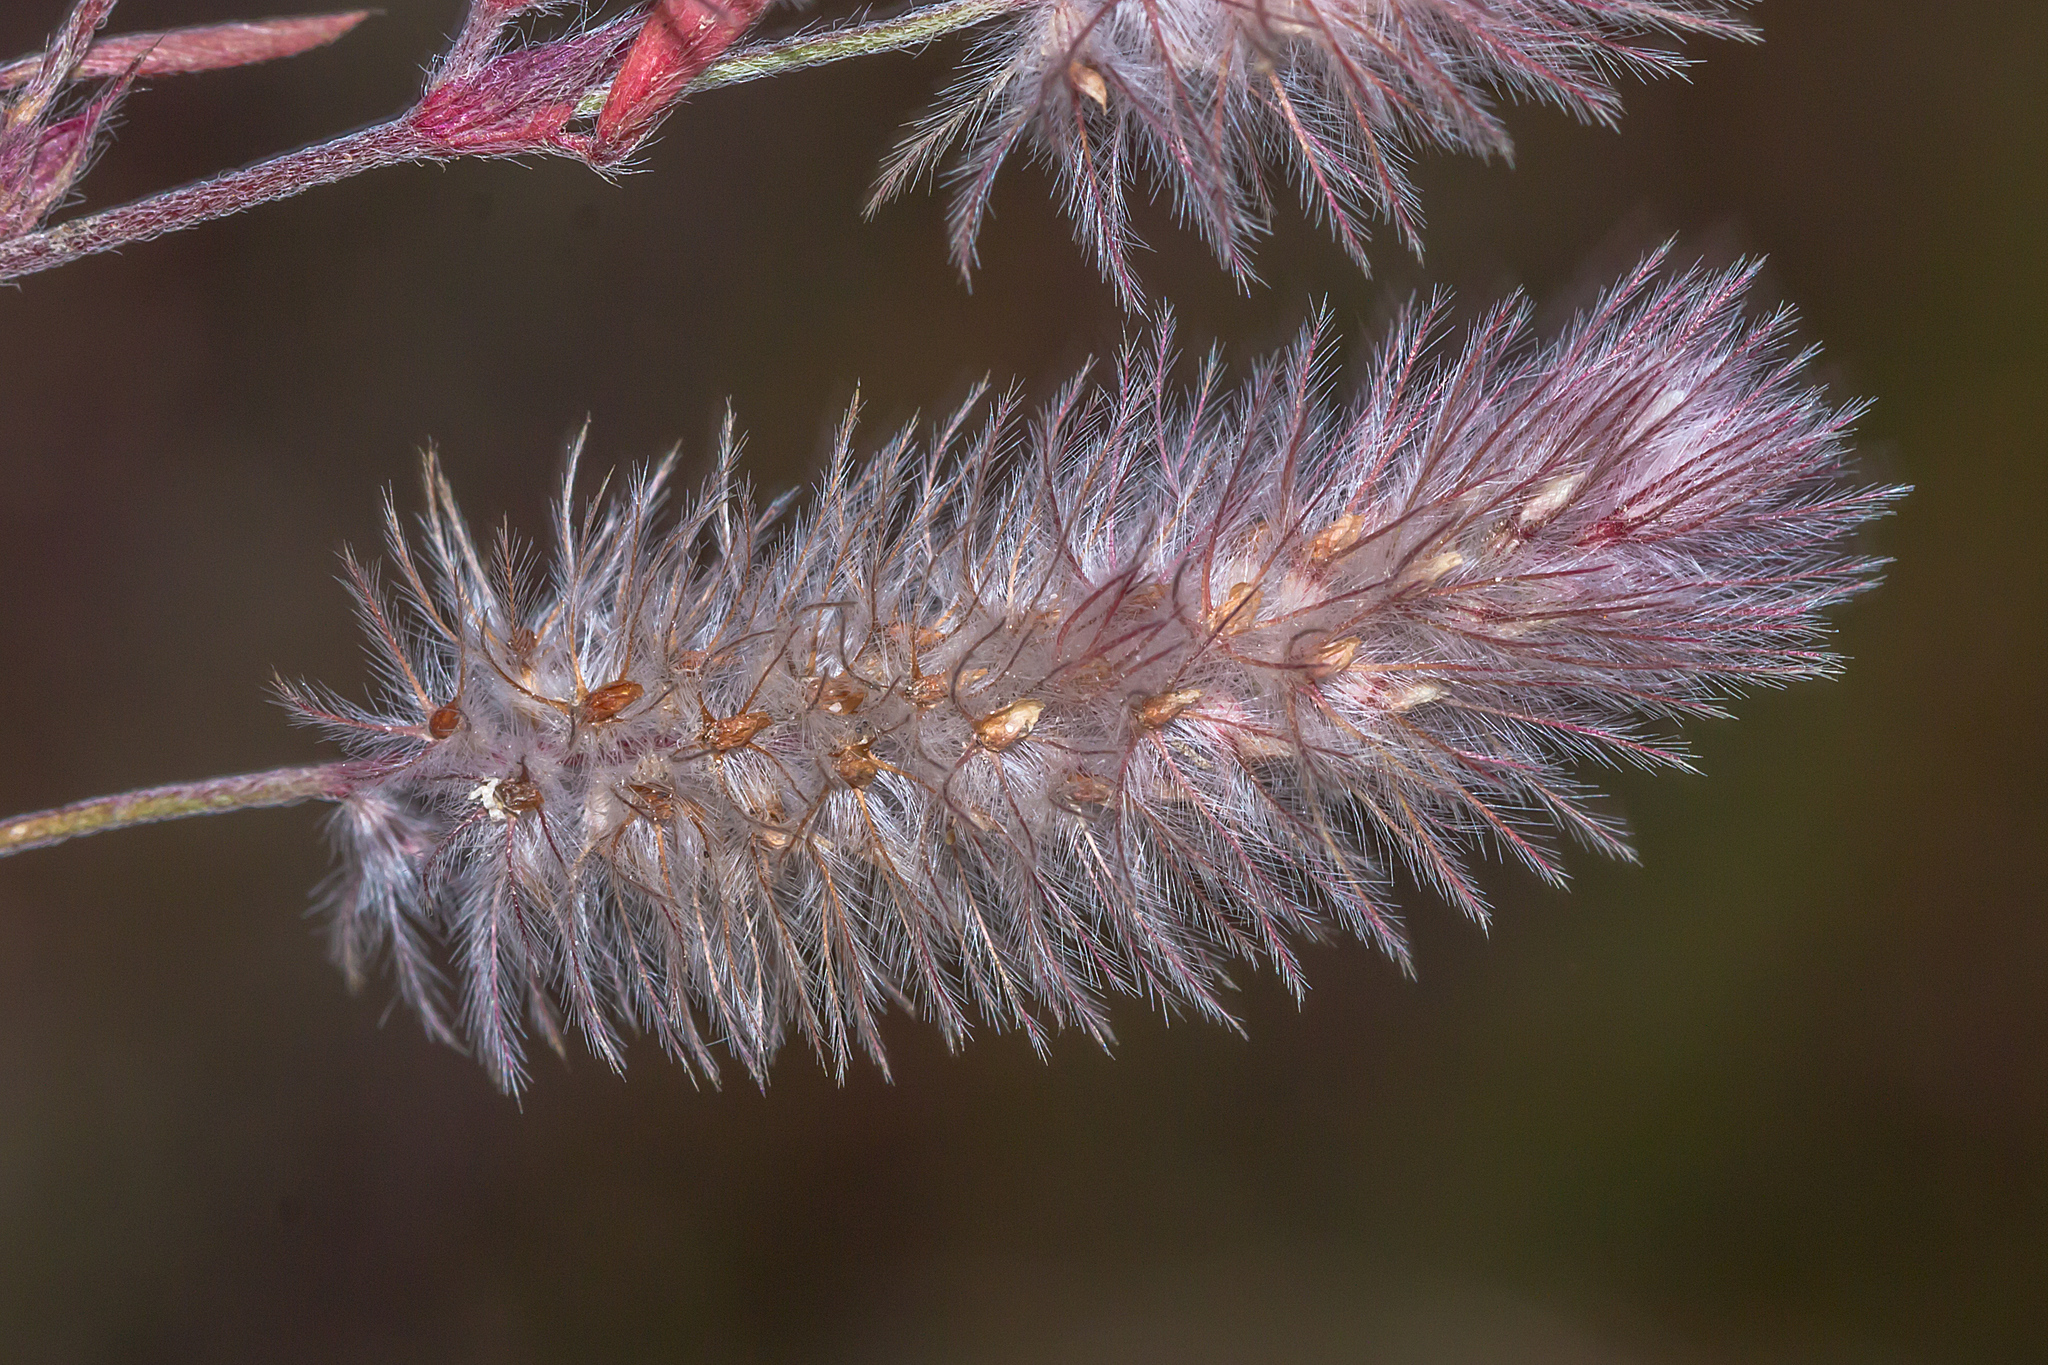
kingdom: Plantae
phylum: Tracheophyta
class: Magnoliopsida
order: Fabales
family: Fabaceae
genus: Trifolium
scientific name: Trifolium arvense
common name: Hare's-foot clover
